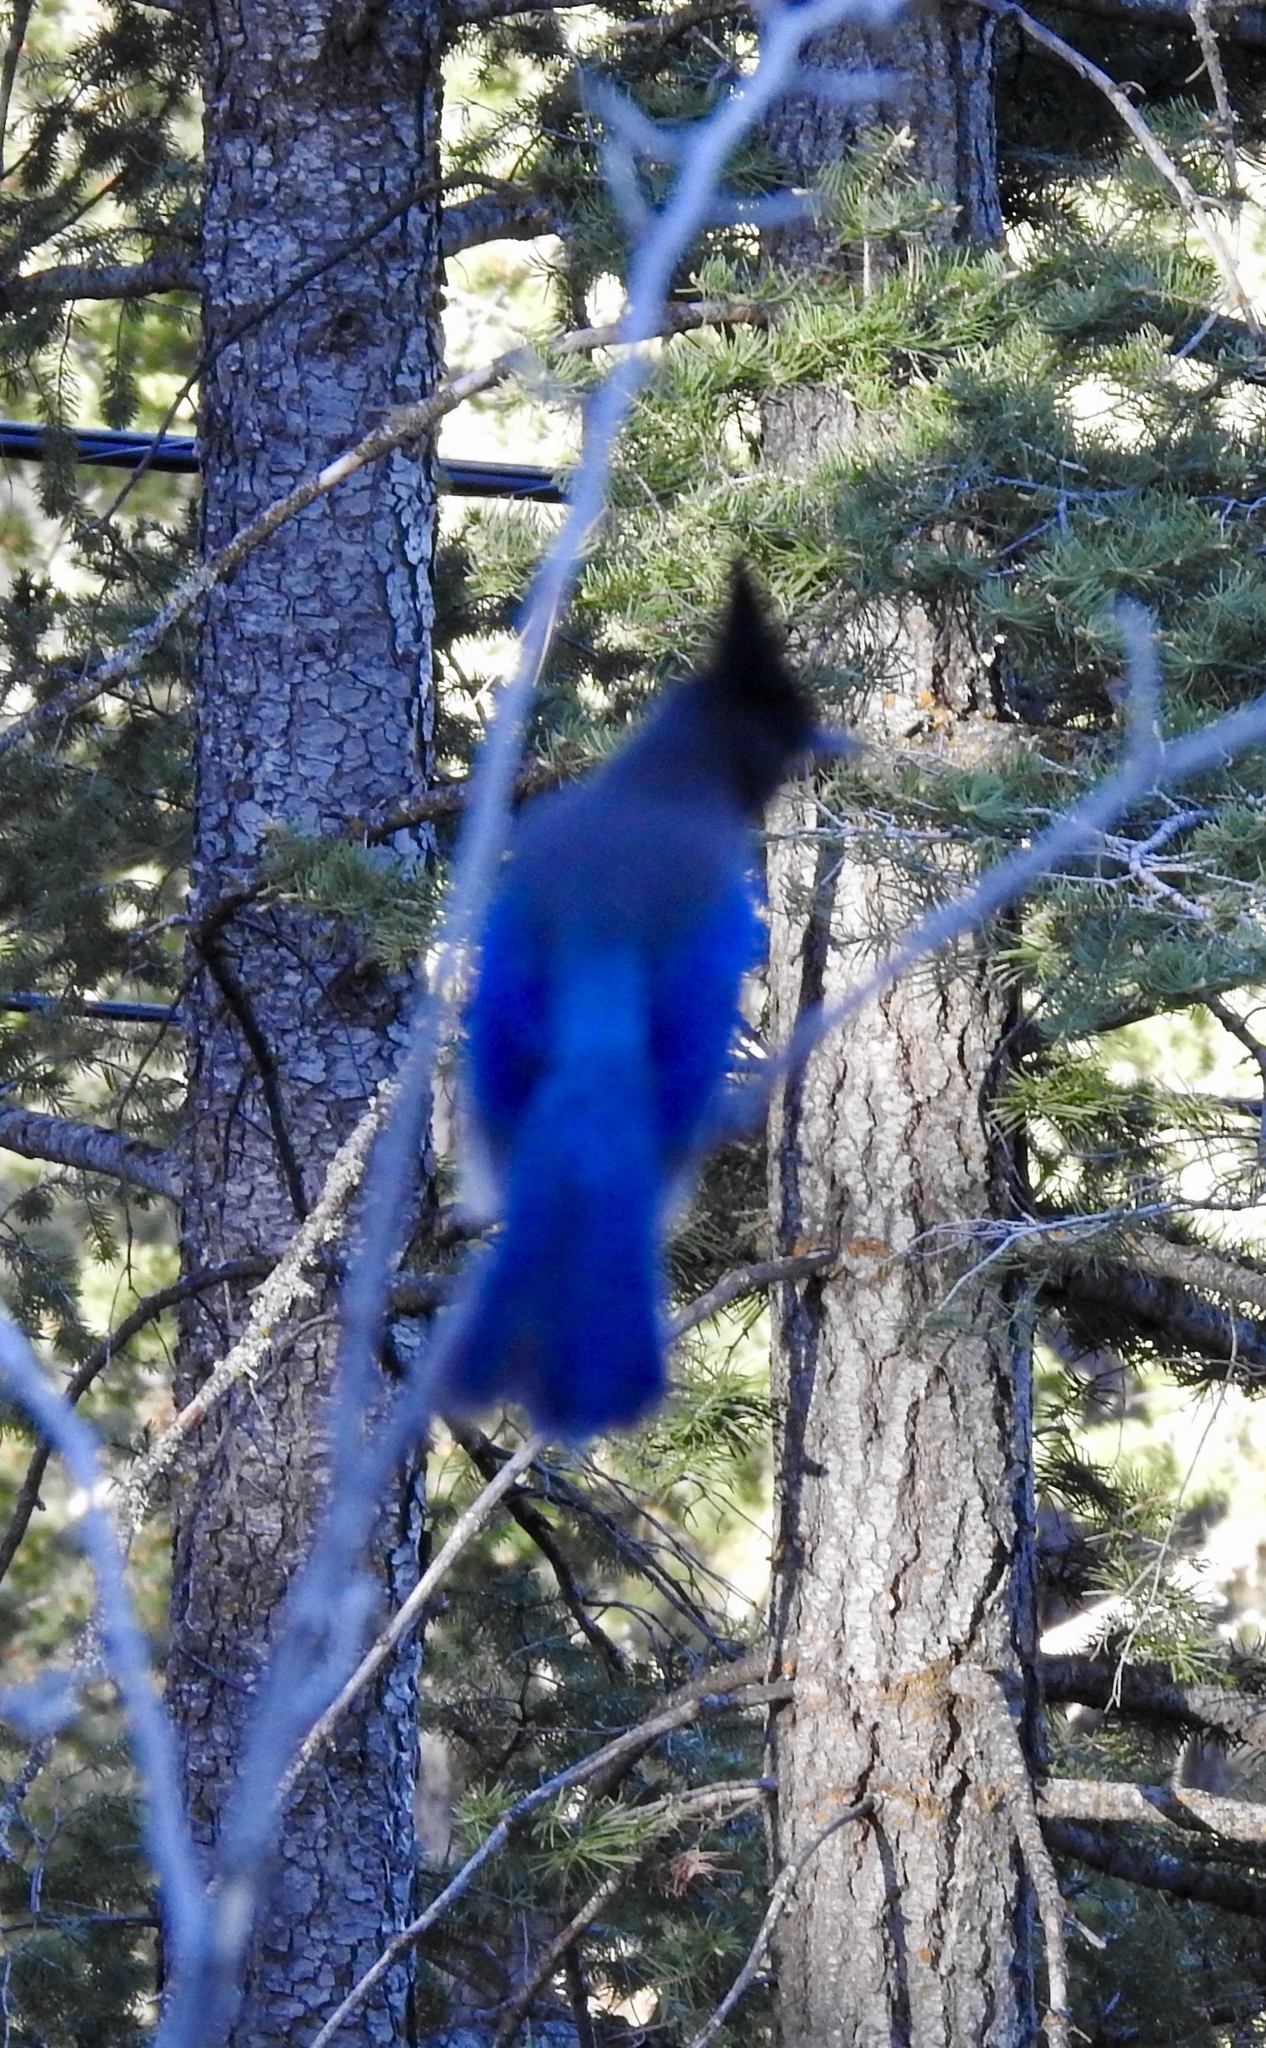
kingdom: Animalia
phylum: Chordata
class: Aves
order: Passeriformes
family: Corvidae
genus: Cyanocitta
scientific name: Cyanocitta stelleri
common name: Steller's jay
